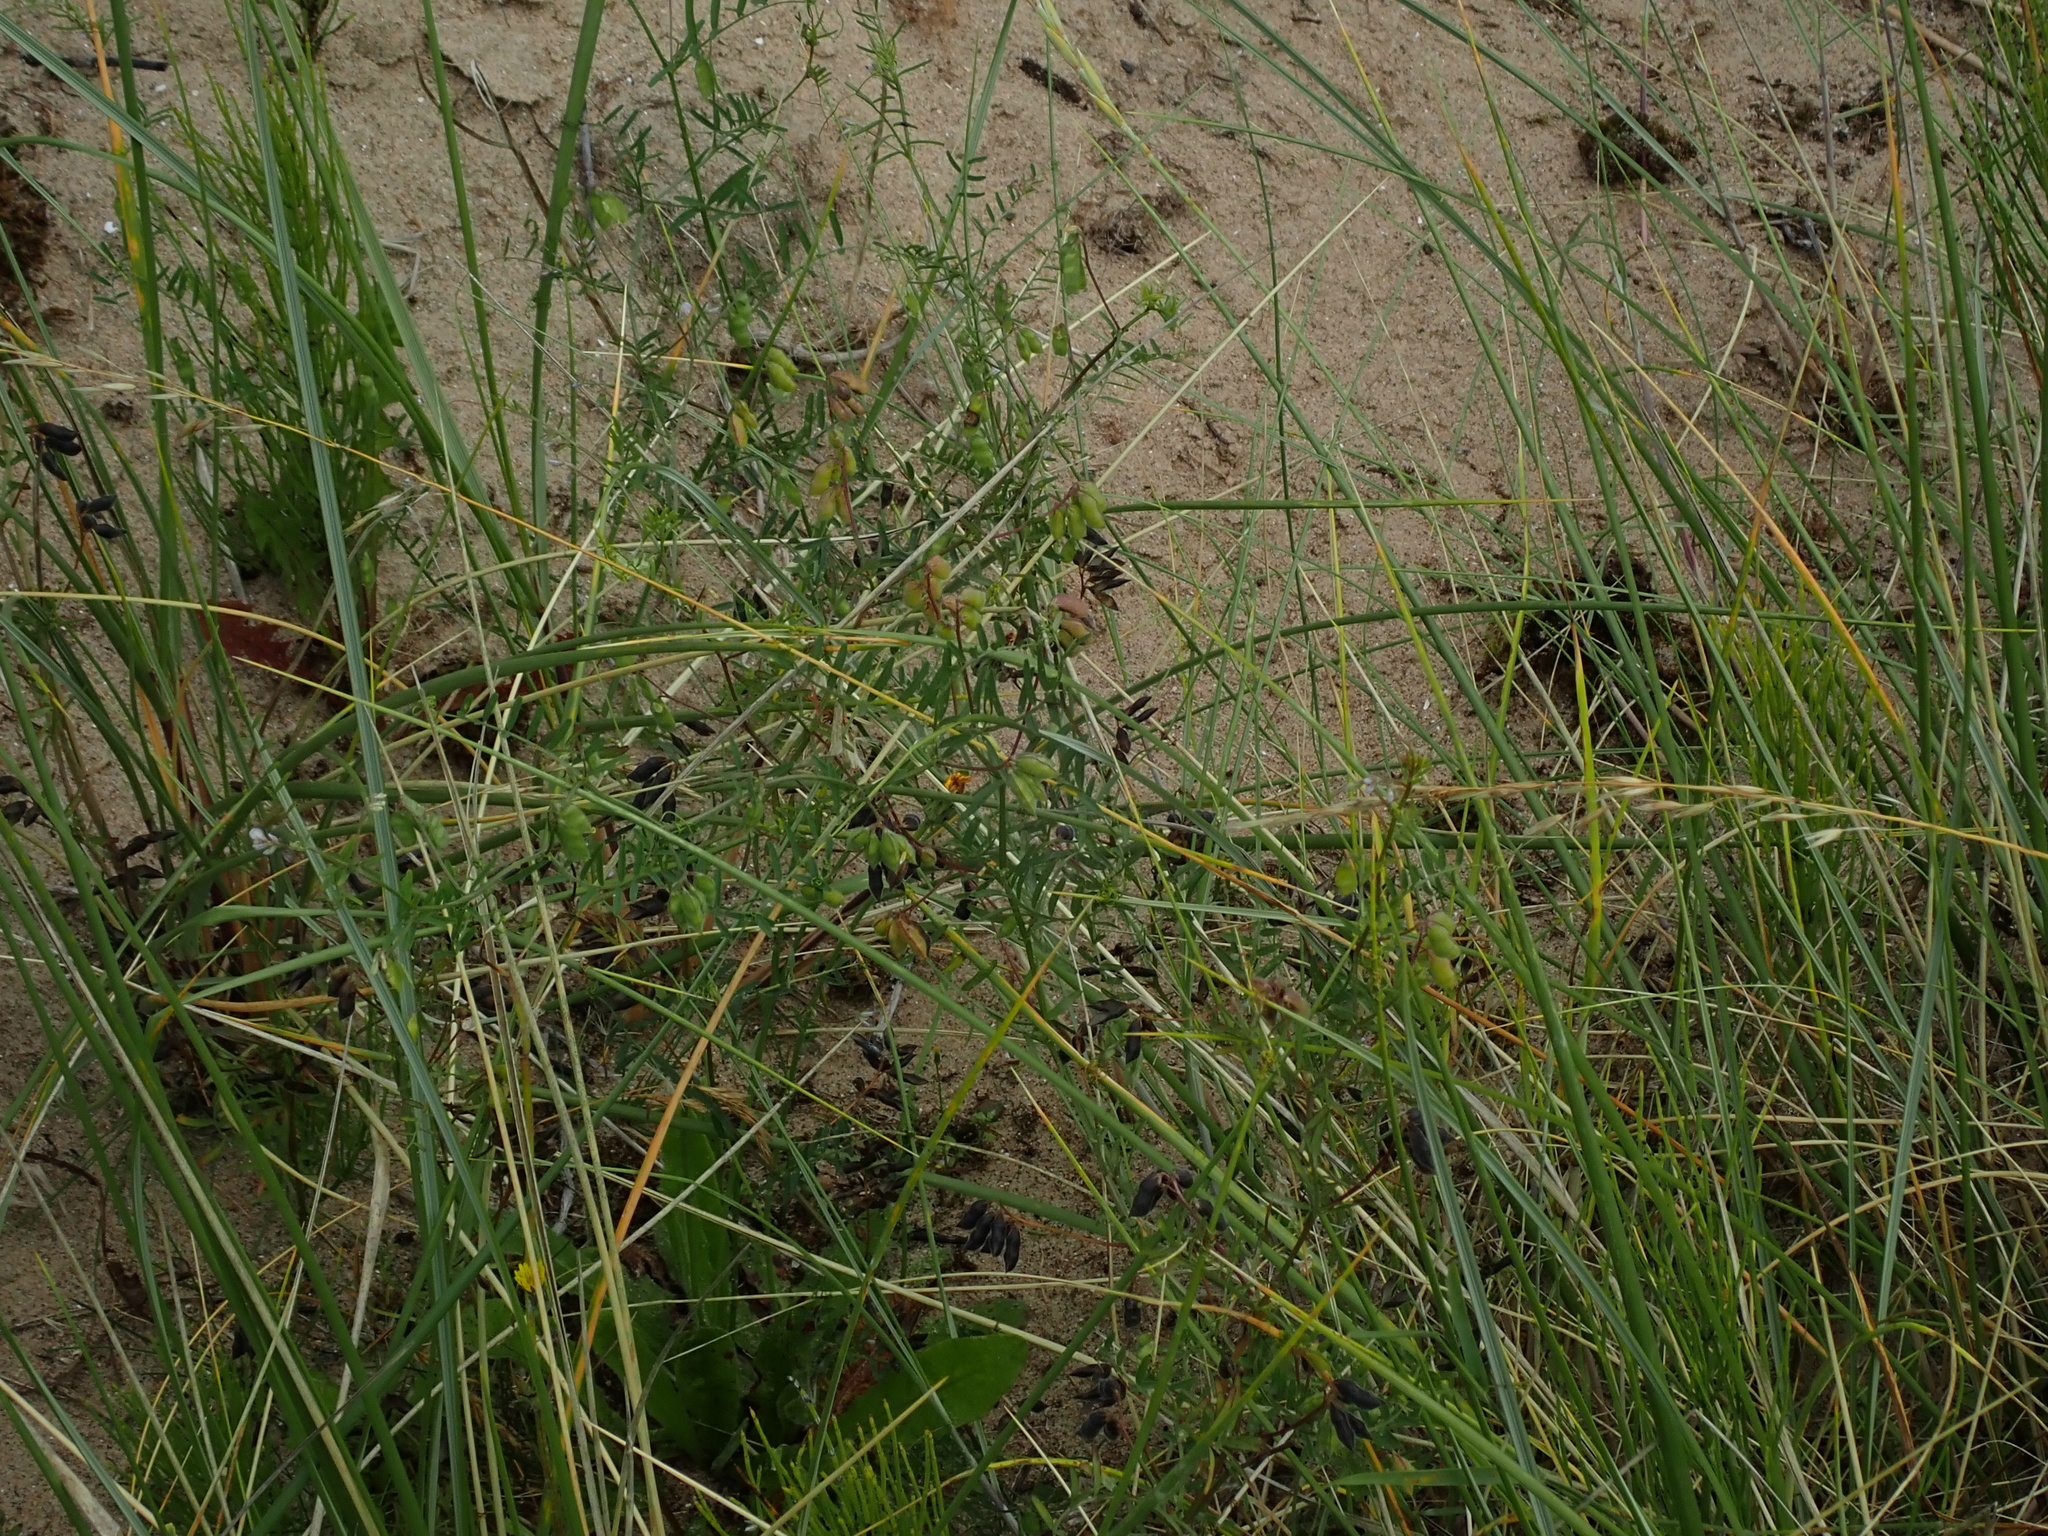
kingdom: Plantae
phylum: Tracheophyta
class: Magnoliopsida
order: Fabales
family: Fabaceae
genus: Vicia
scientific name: Vicia hirsuta
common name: Tiny vetch
